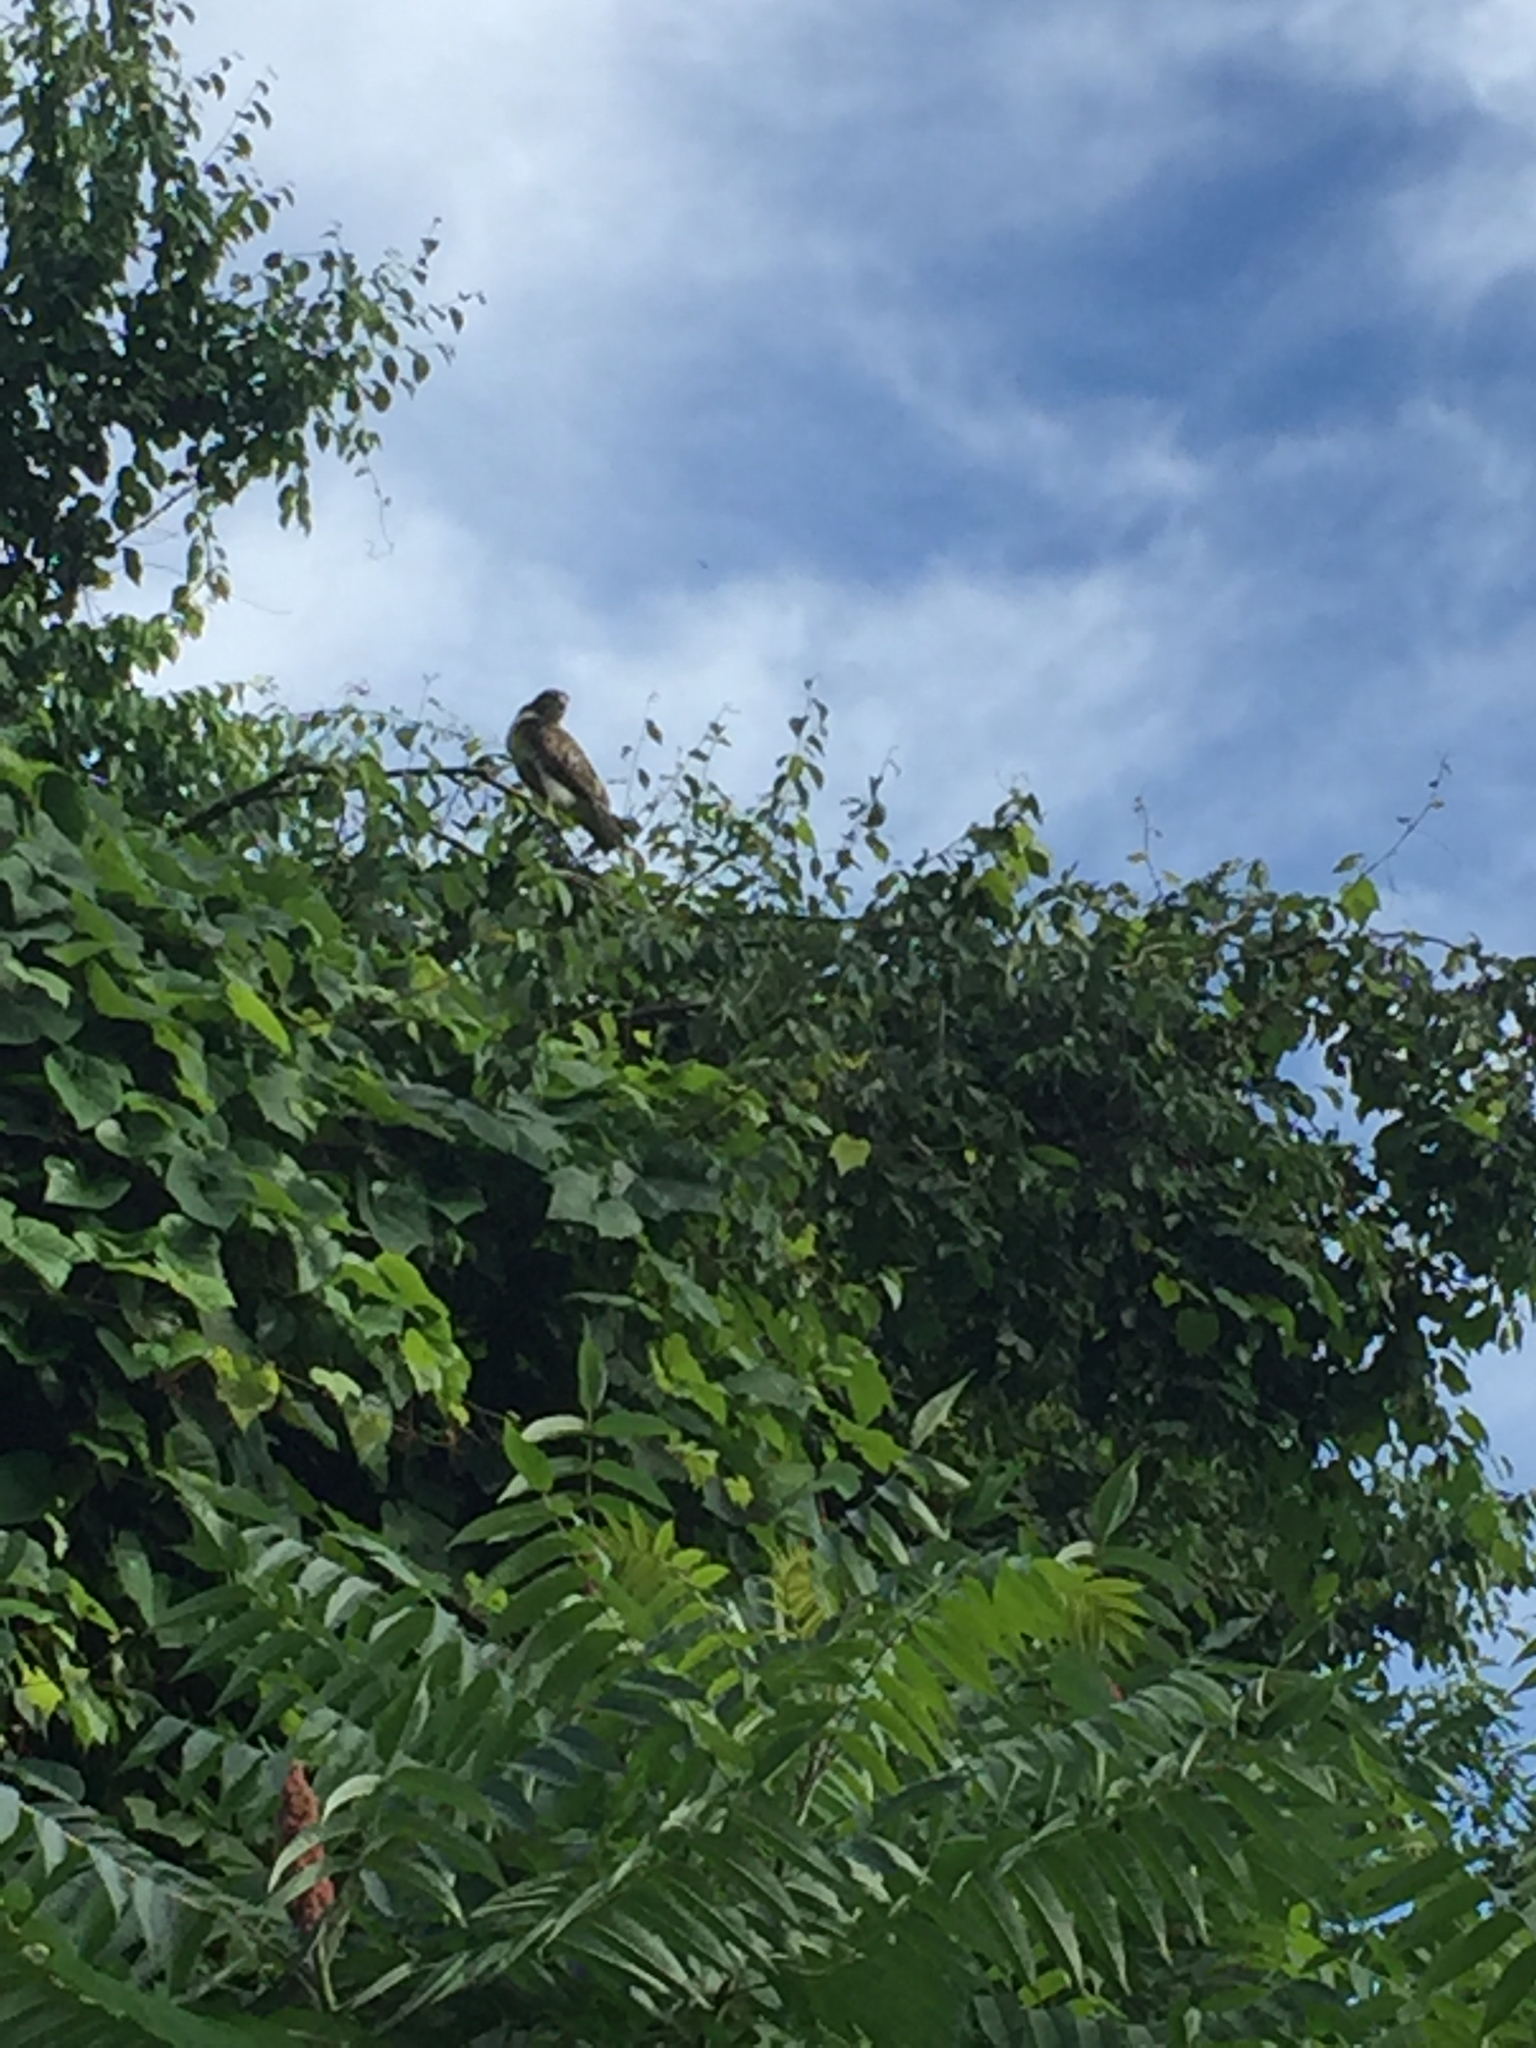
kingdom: Animalia
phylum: Chordata
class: Aves
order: Accipitriformes
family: Accipitridae
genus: Buteo
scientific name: Buteo jamaicensis
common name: Red-tailed hawk
